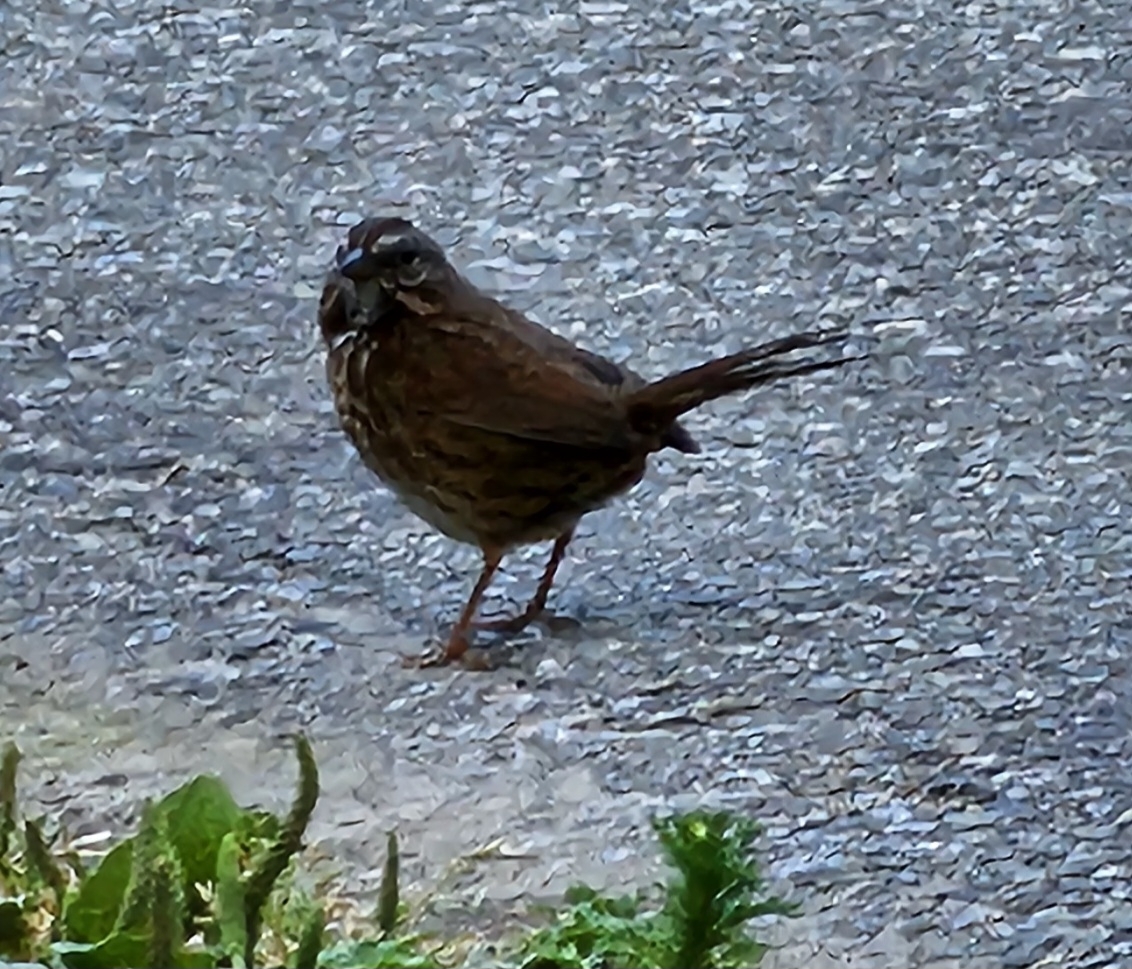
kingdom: Animalia
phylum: Chordata
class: Aves
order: Passeriformes
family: Passerellidae
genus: Melospiza
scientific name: Melospiza melodia
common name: Song sparrow
